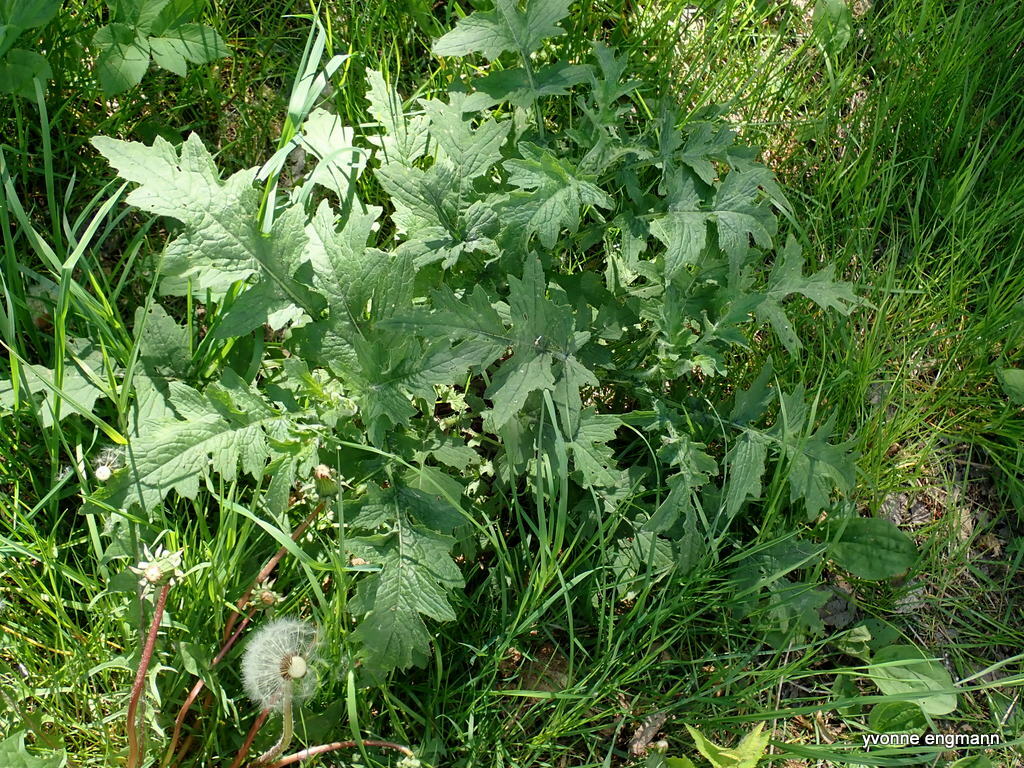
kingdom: Plantae
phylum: Tracheophyta
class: Magnoliopsida
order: Asterales
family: Asteraceae
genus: Carduus
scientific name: Carduus crispus
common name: Welted thistle
